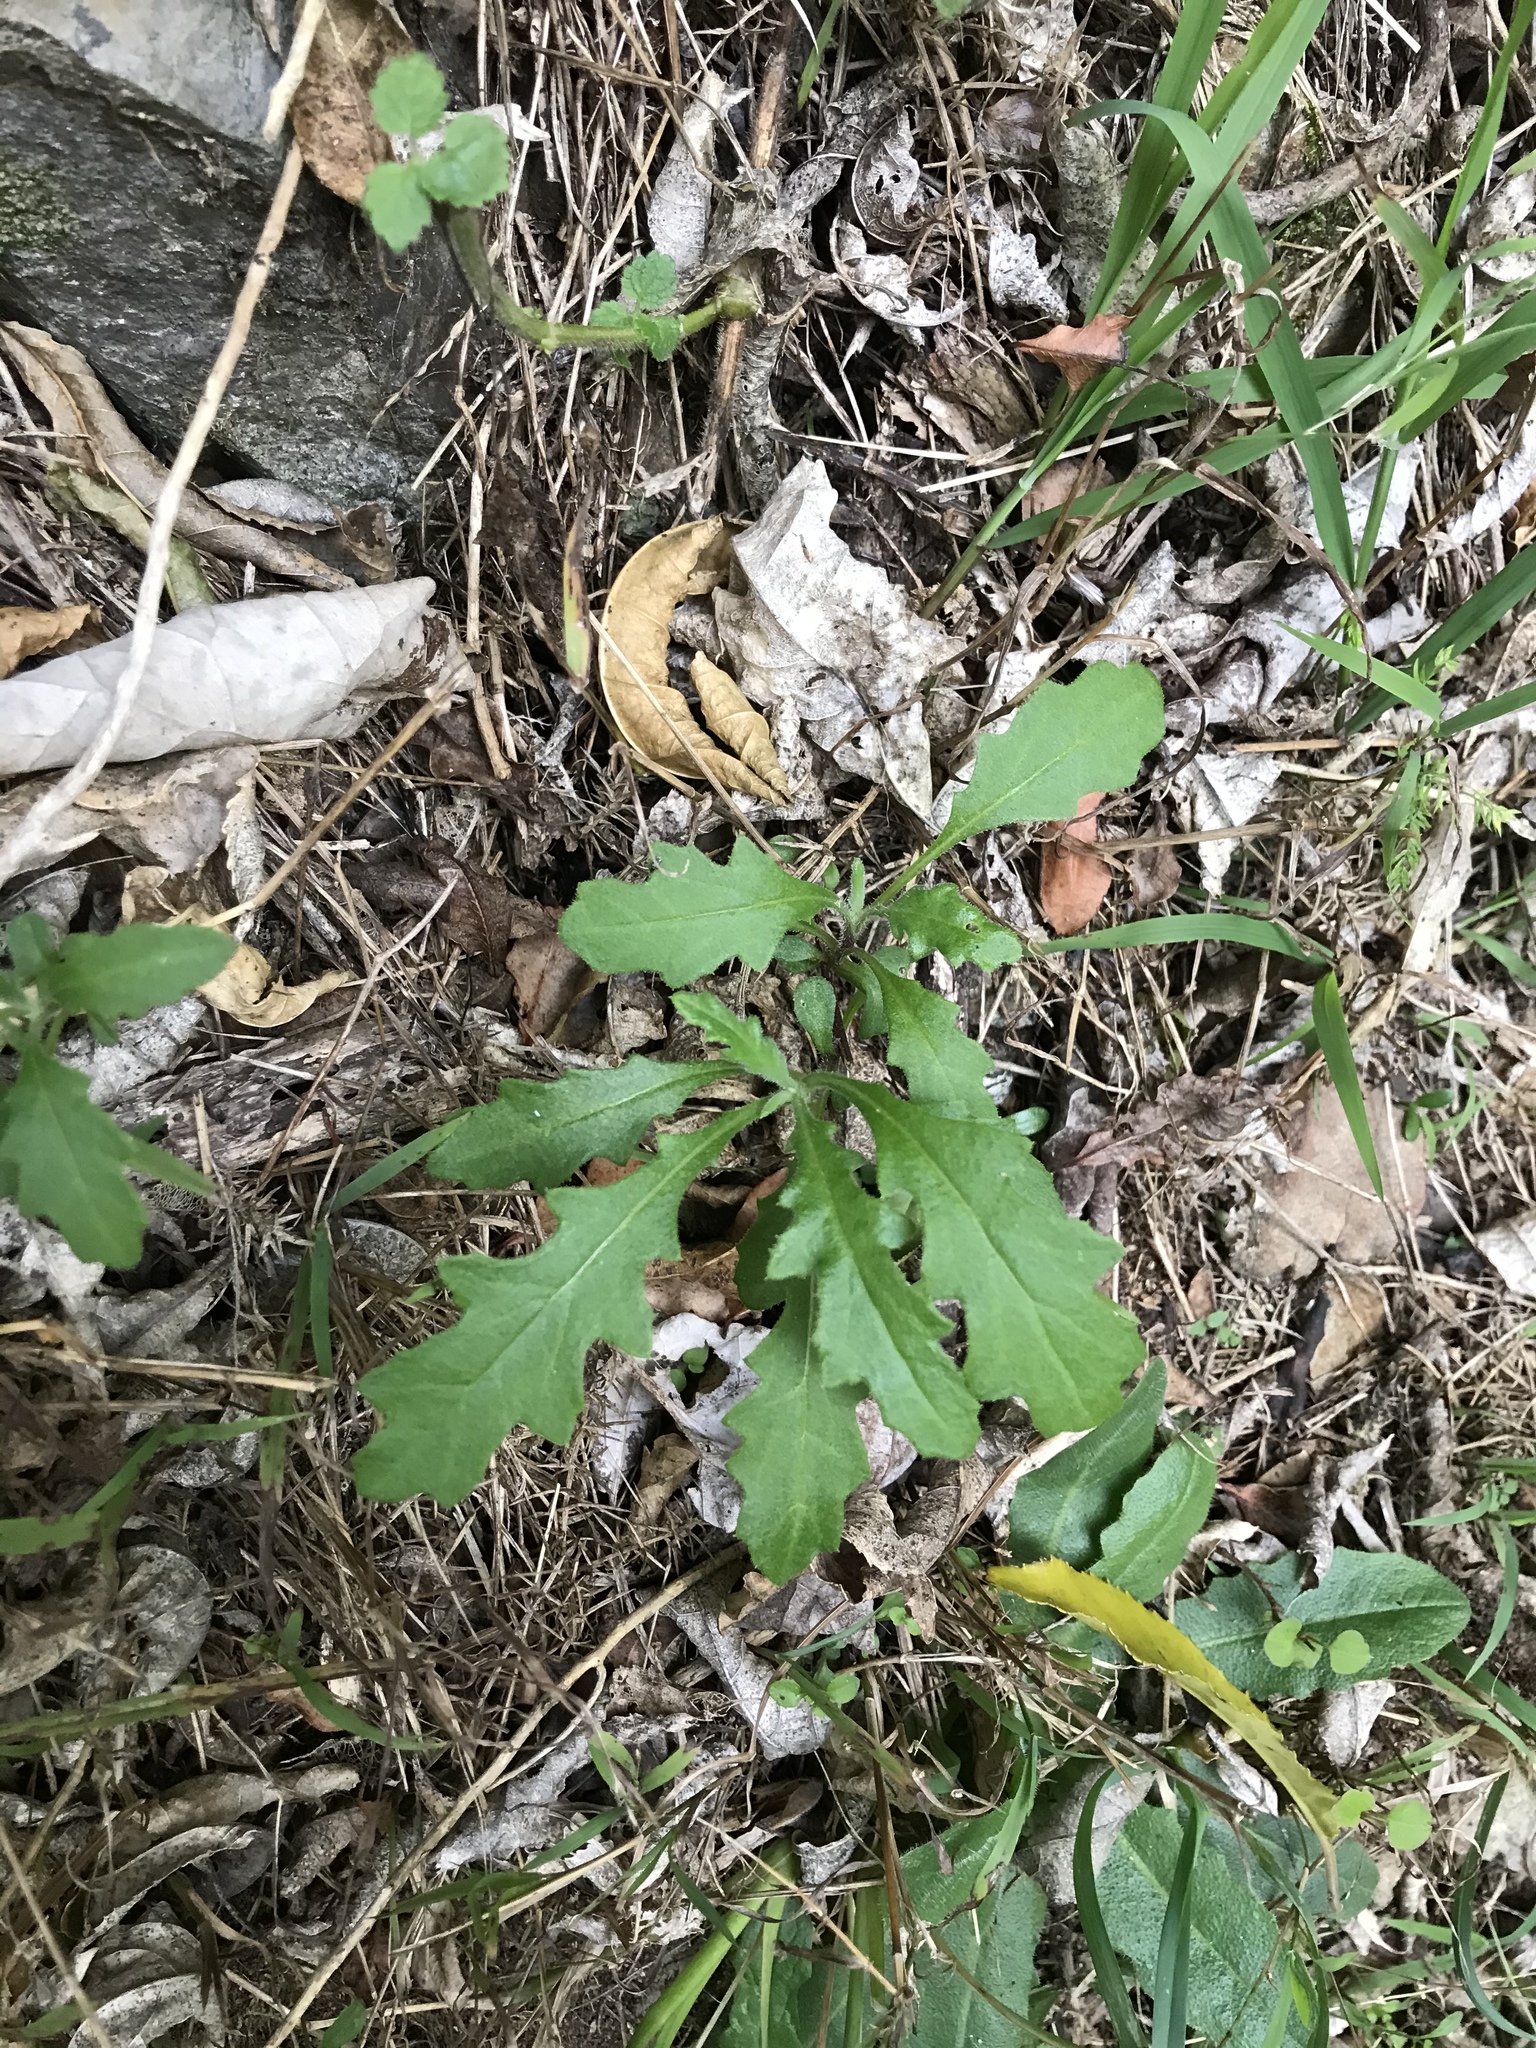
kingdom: Plantae
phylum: Tracheophyta
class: Magnoliopsida
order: Asterales
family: Asteraceae
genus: Senecio
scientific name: Senecio hispidulus
